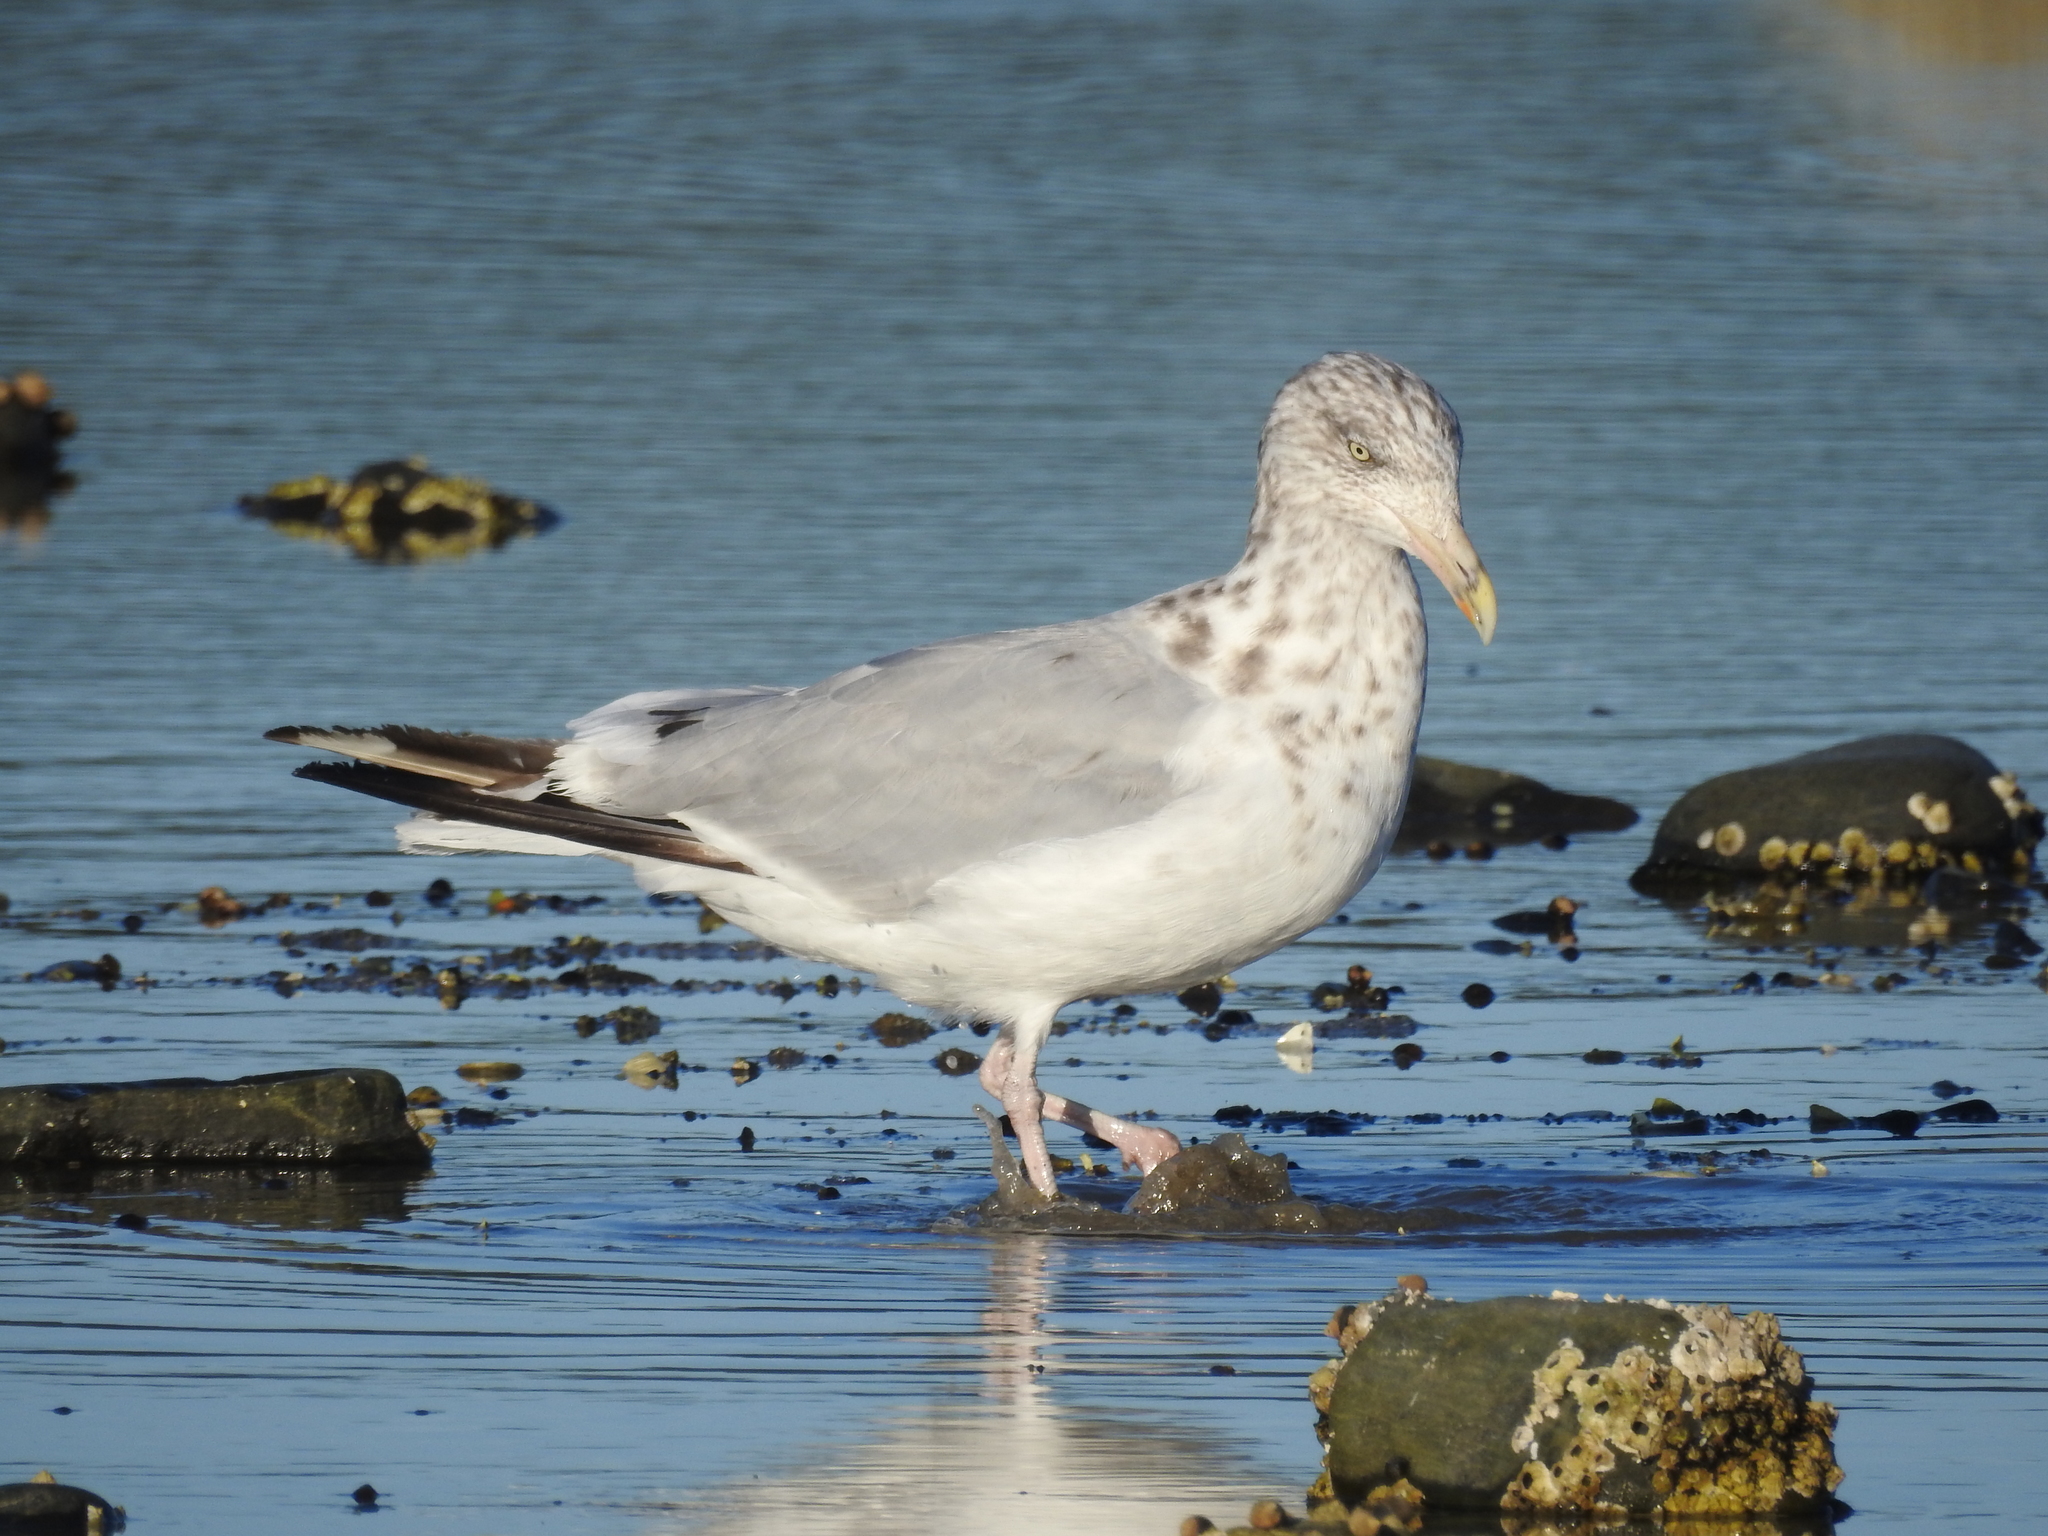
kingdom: Animalia
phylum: Chordata
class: Aves
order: Charadriiformes
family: Laridae
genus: Larus
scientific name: Larus argentatus
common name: Herring gull
